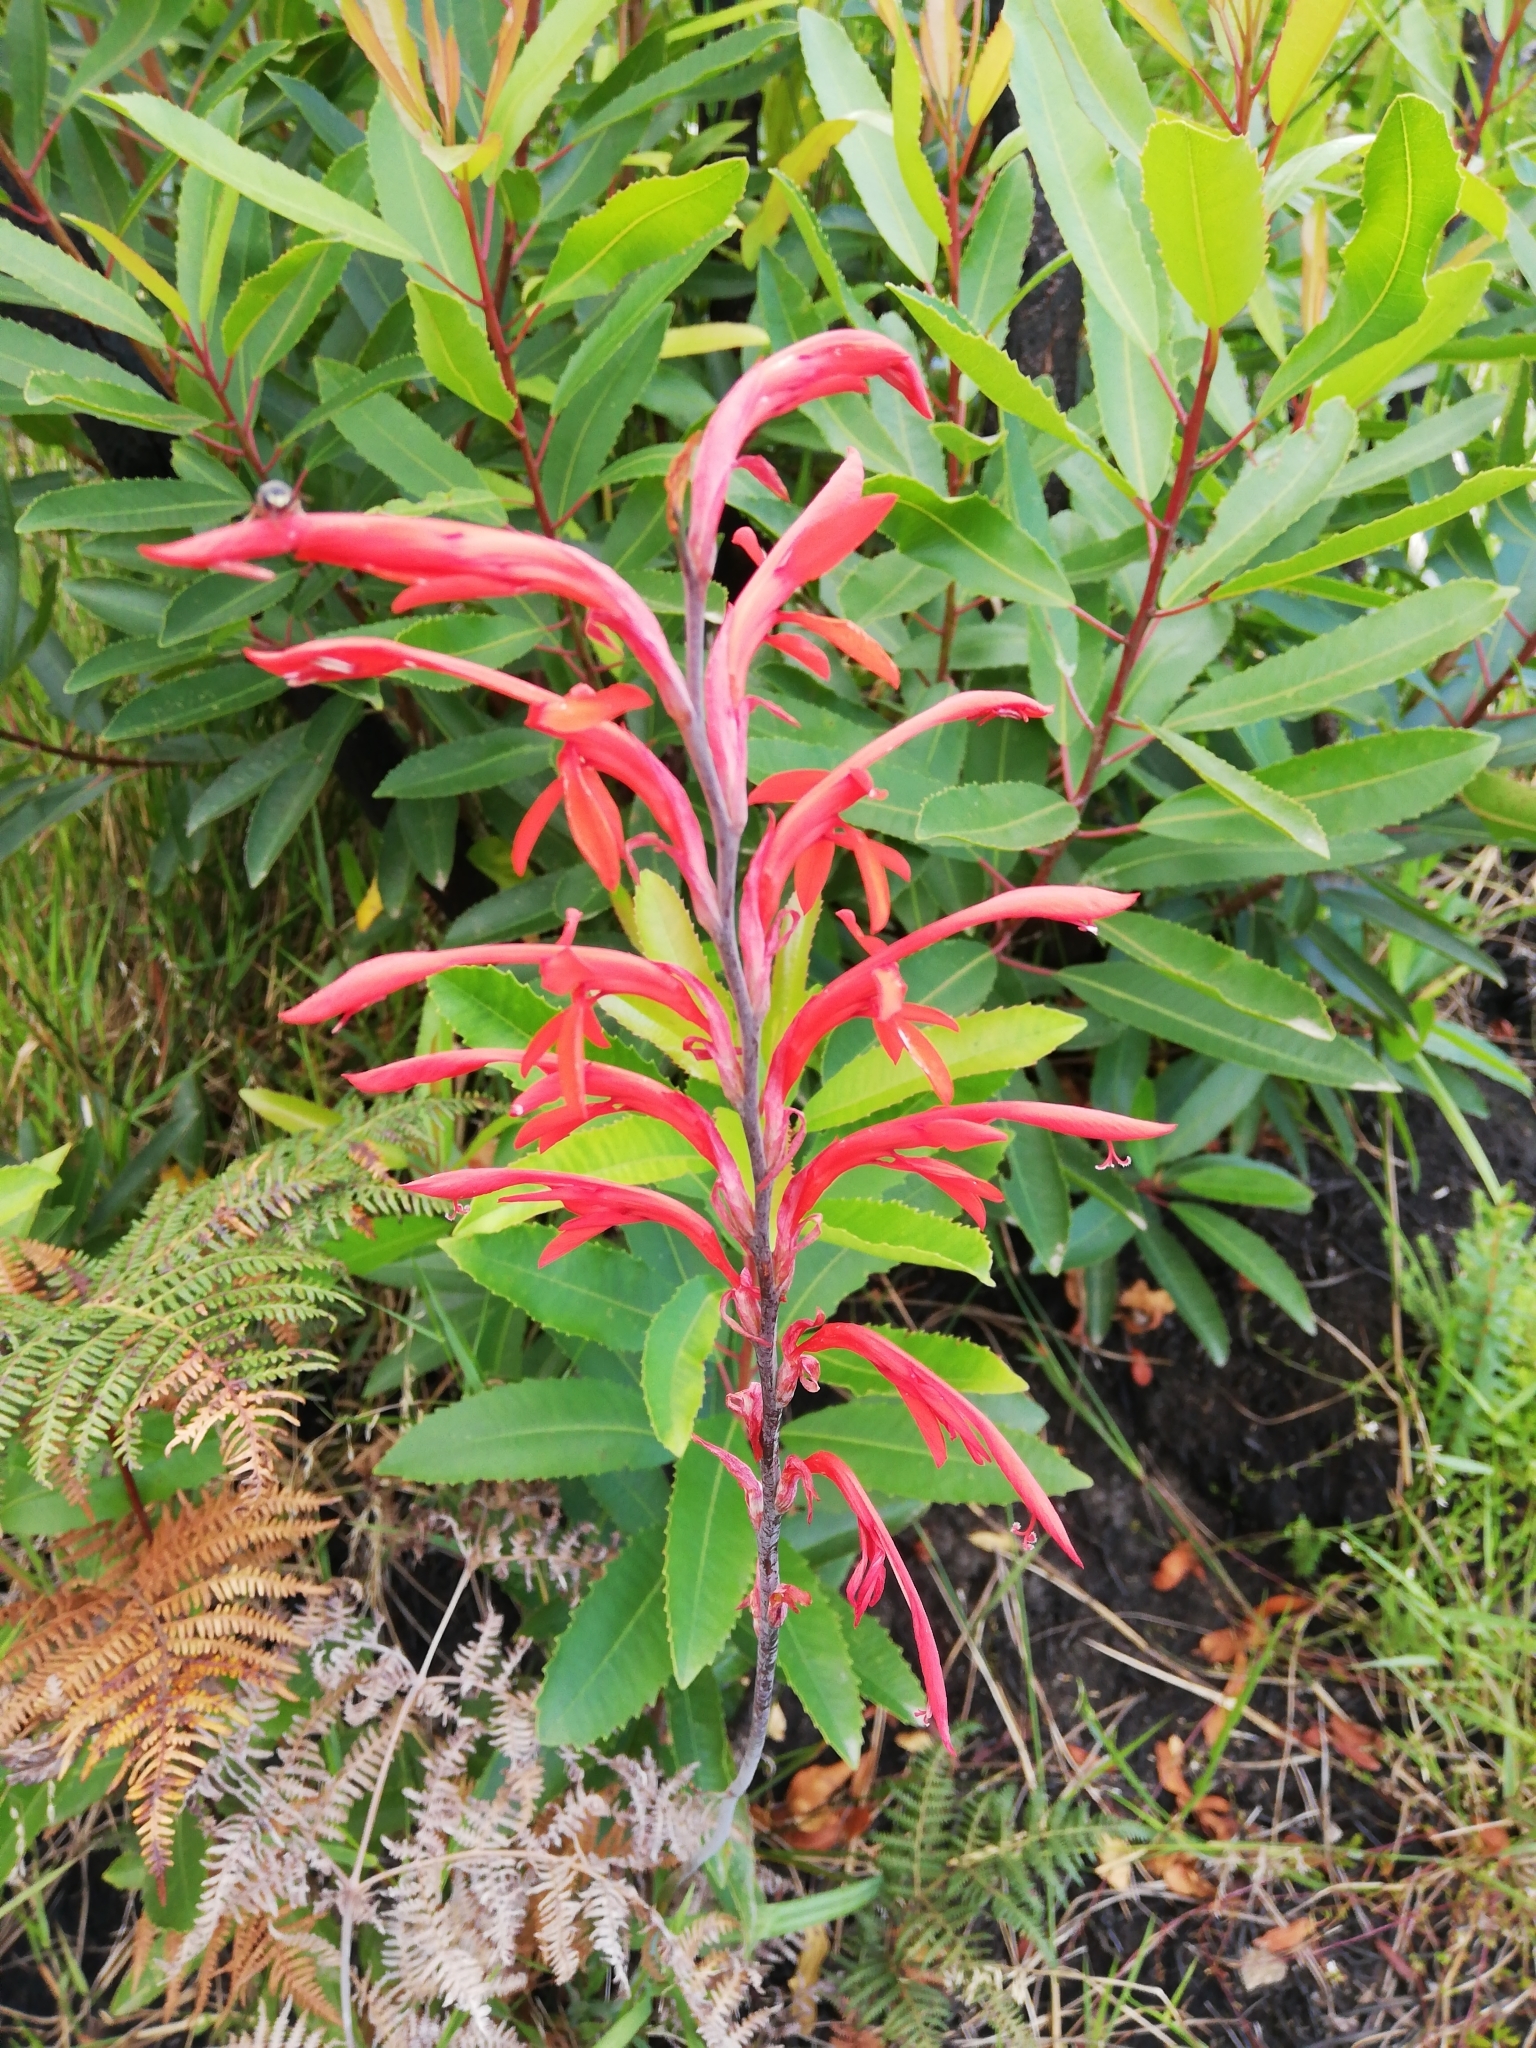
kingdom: Plantae
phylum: Tracheophyta
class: Liliopsida
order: Asparagales
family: Iridaceae
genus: Tritoniopsis
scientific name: Tritoniopsis caffra
